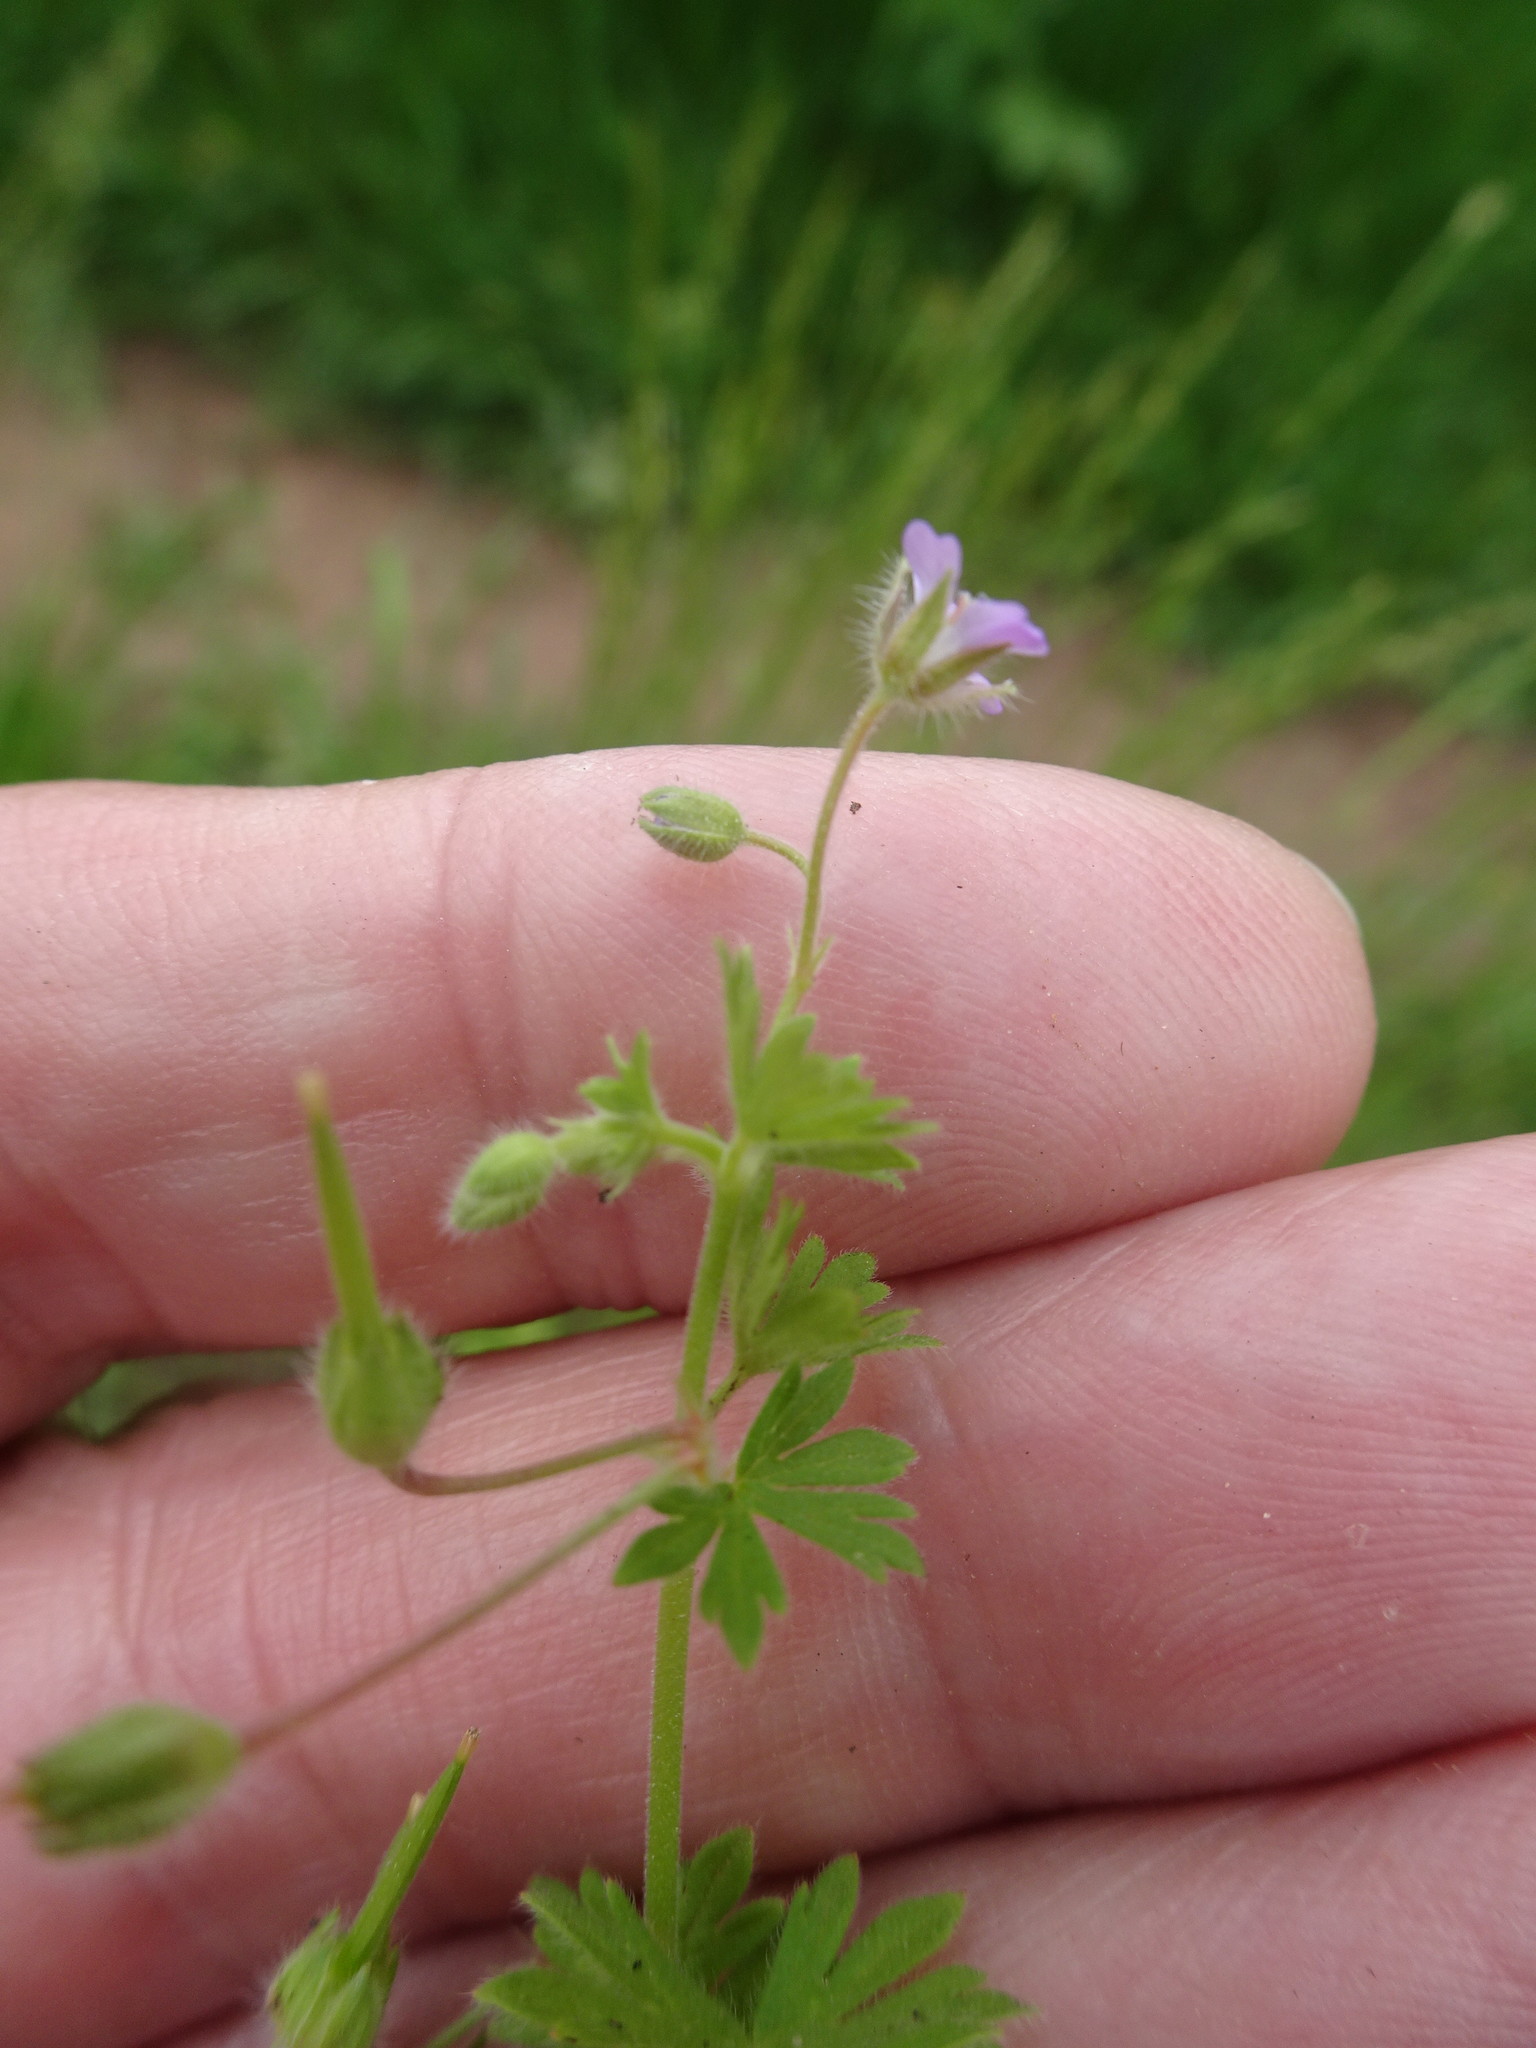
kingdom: Plantae
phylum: Tracheophyta
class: Magnoliopsida
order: Geraniales
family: Geraniaceae
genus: Geranium
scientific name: Geranium pusillum
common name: Small geranium
